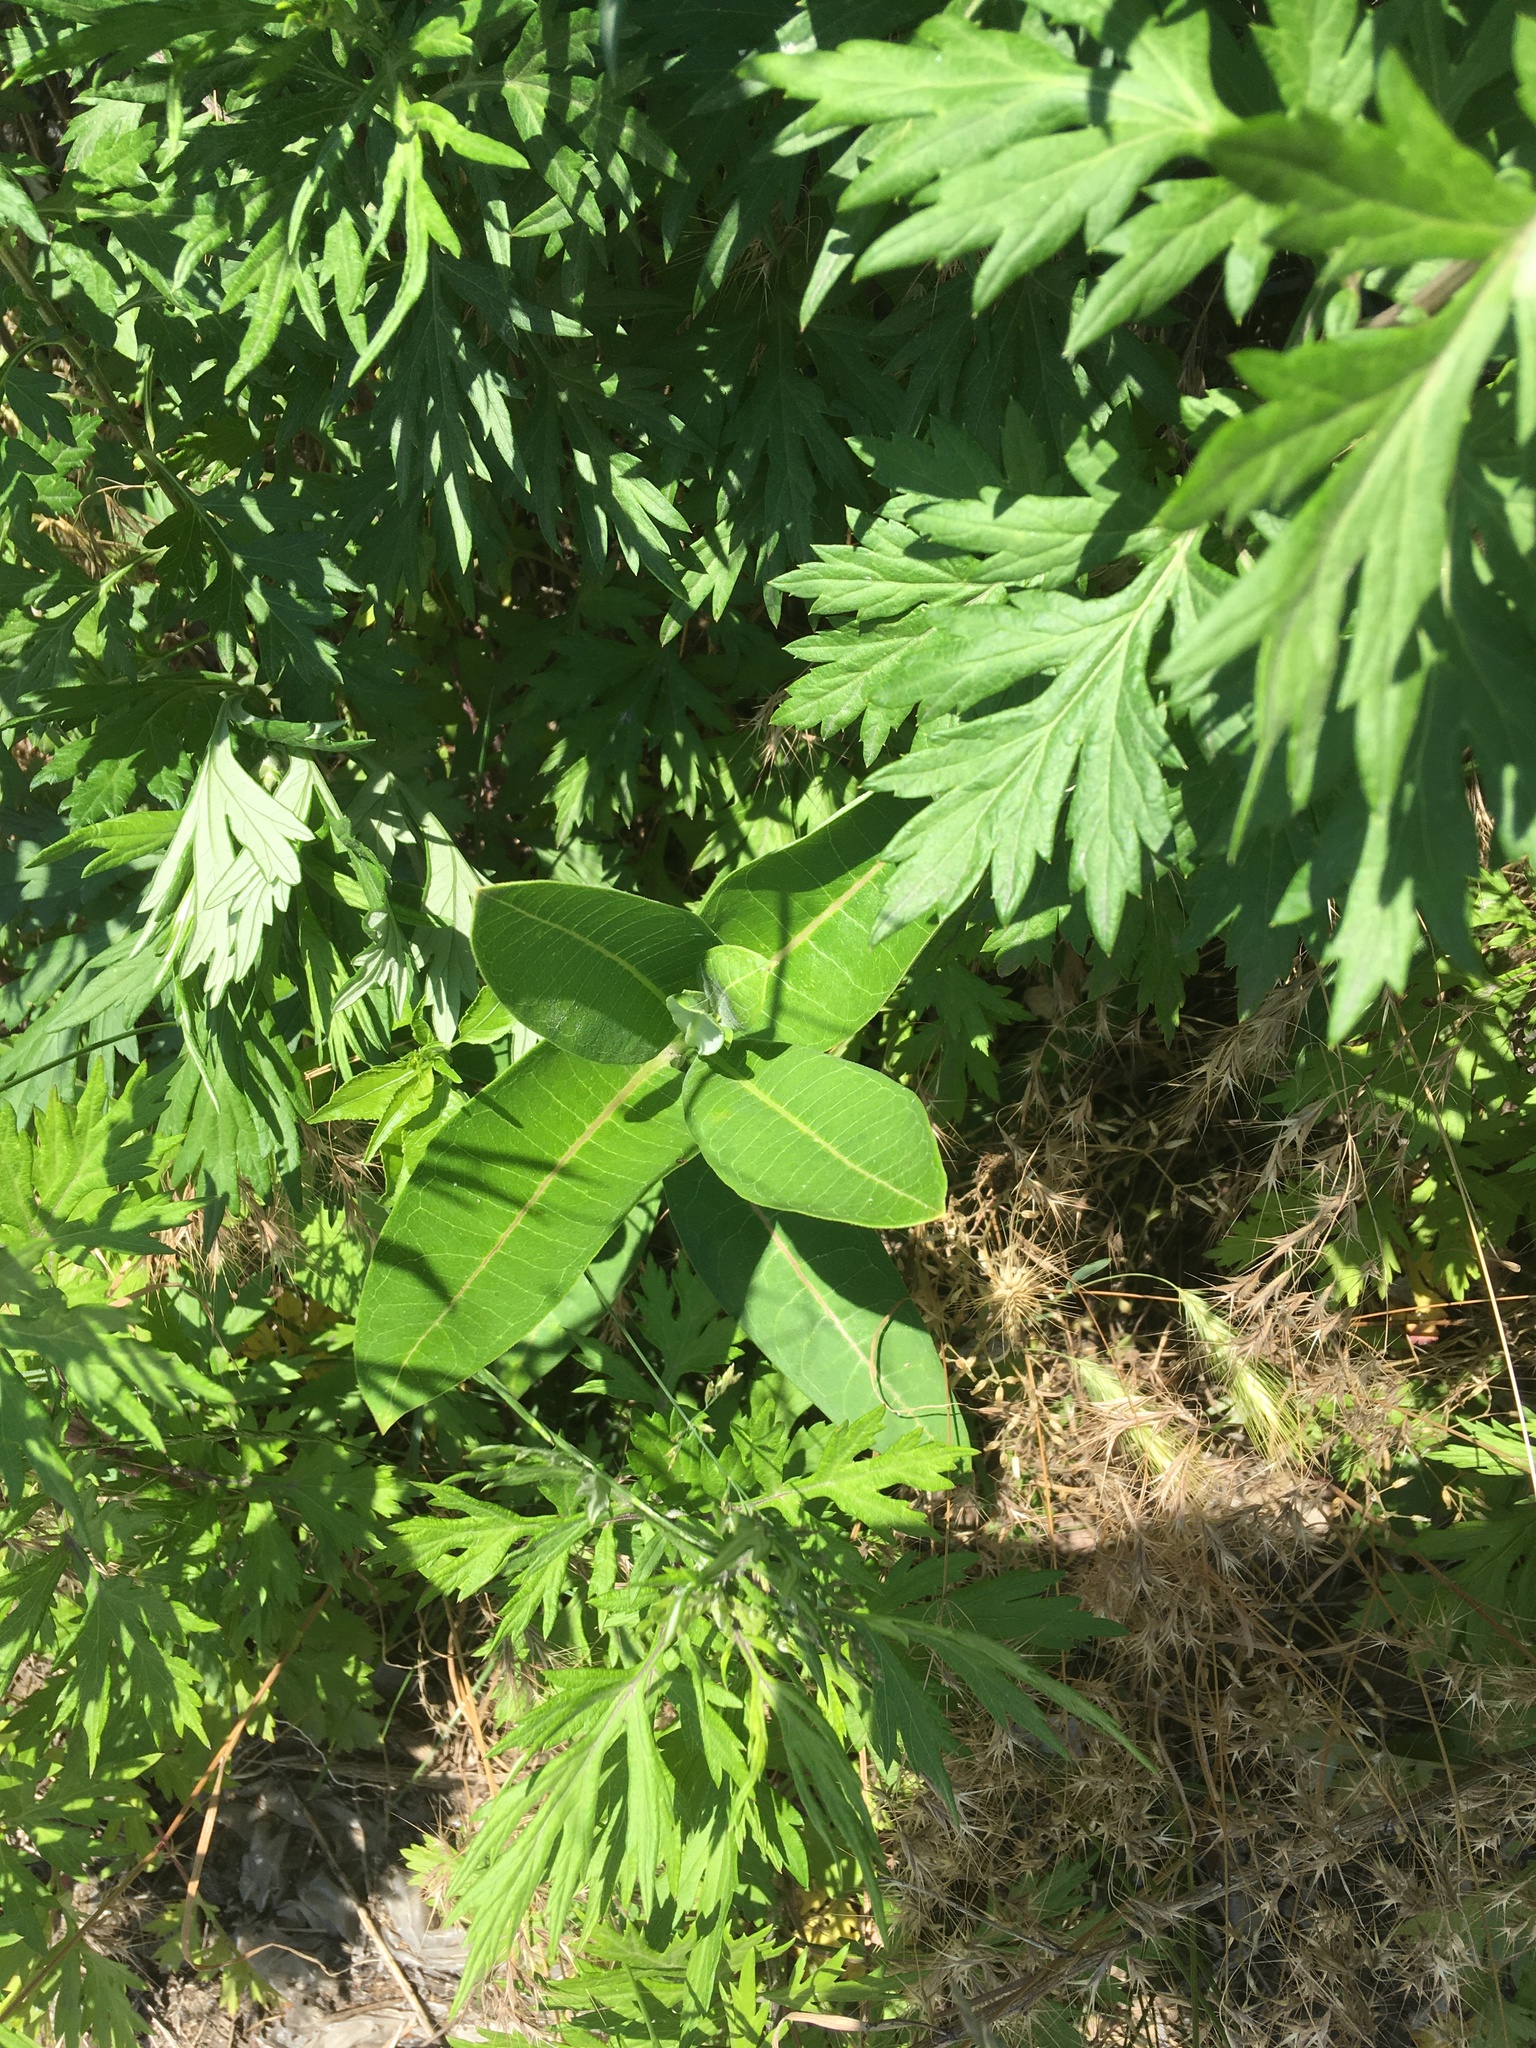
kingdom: Plantae
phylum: Tracheophyta
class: Magnoliopsida
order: Gentianales
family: Apocynaceae
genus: Asclepias
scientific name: Asclepias syriaca
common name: Common milkweed
